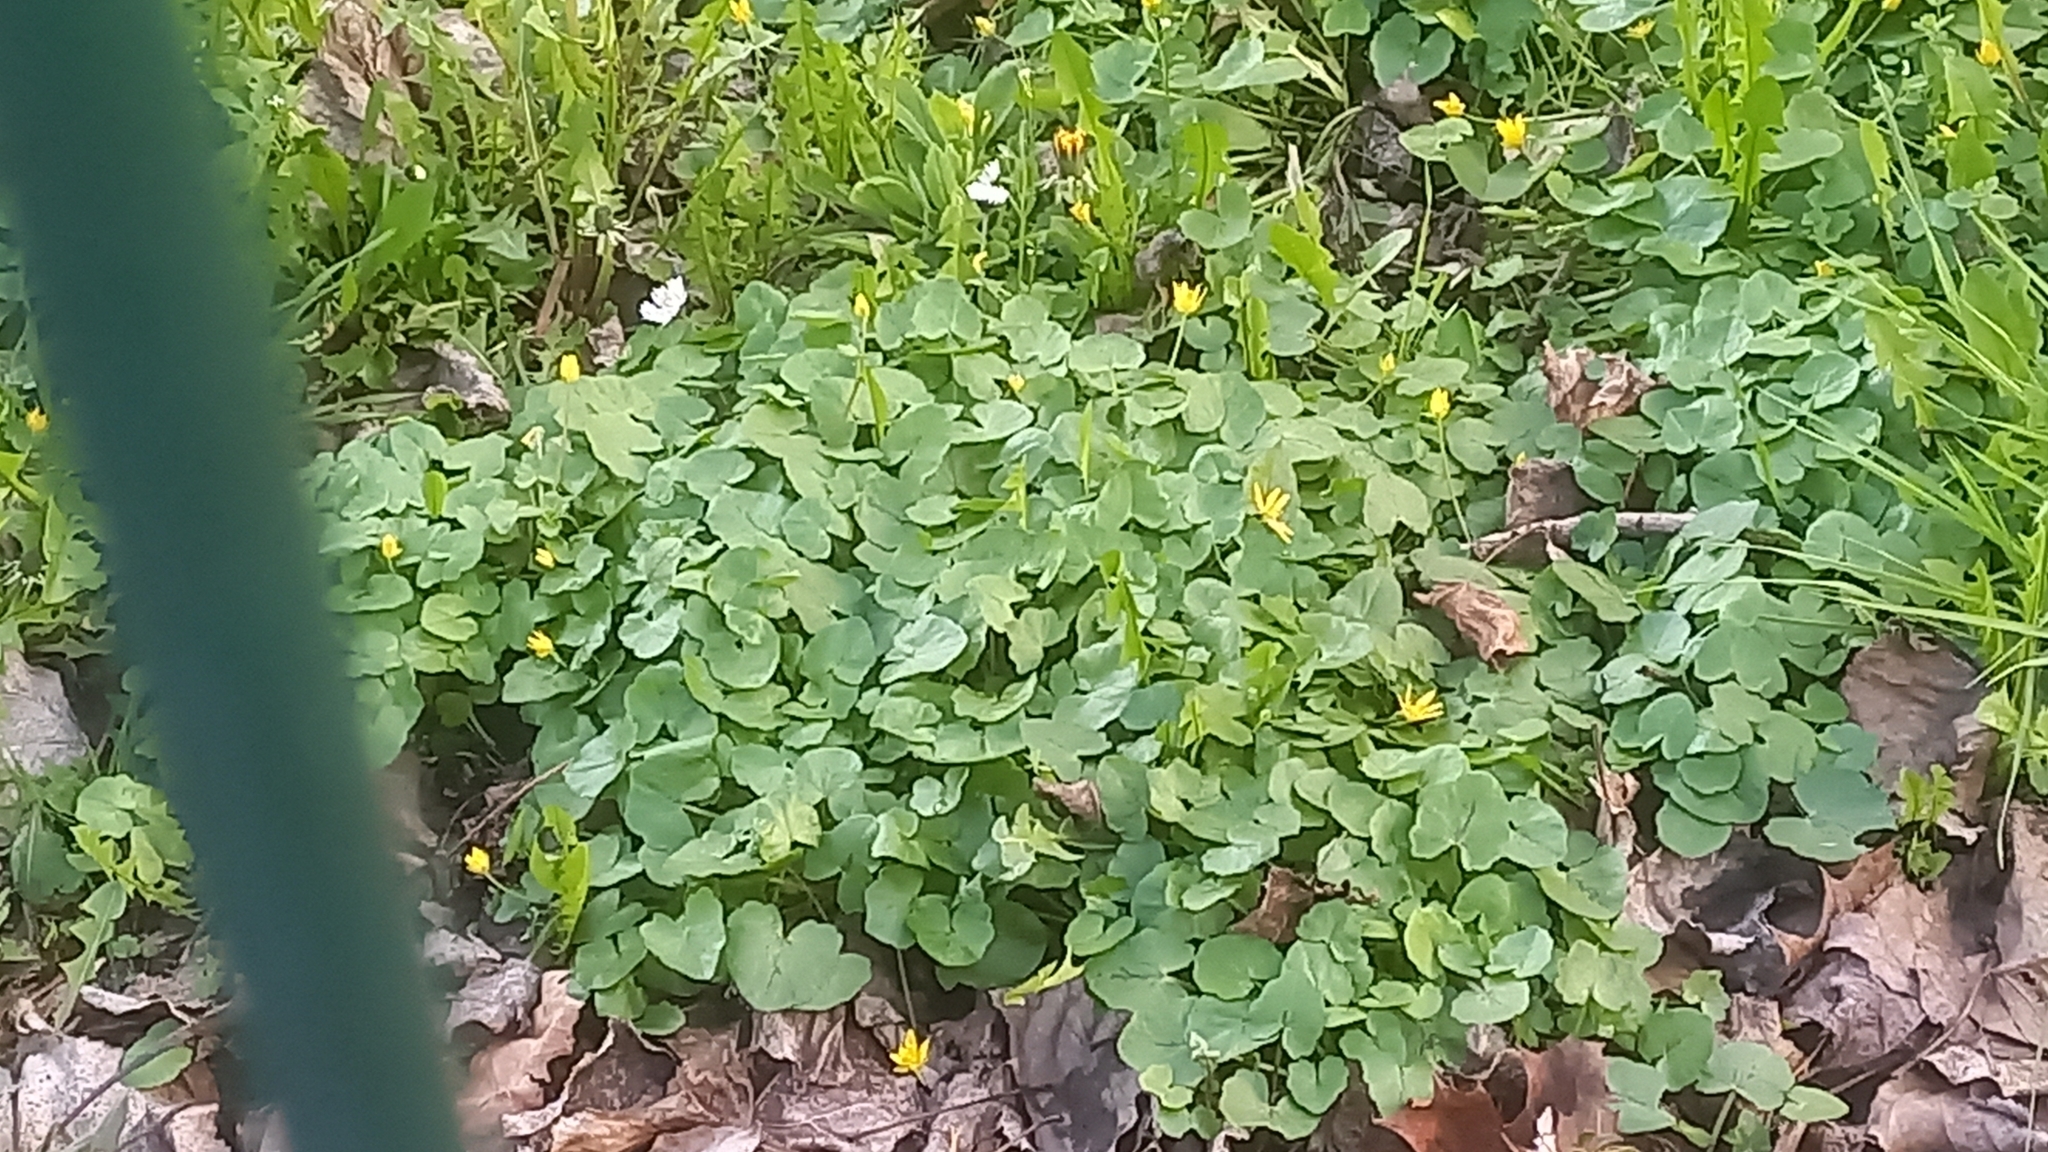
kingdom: Plantae
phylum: Tracheophyta
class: Magnoliopsida
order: Ranunculales
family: Ranunculaceae
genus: Ficaria
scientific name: Ficaria verna
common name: Lesser celandine
